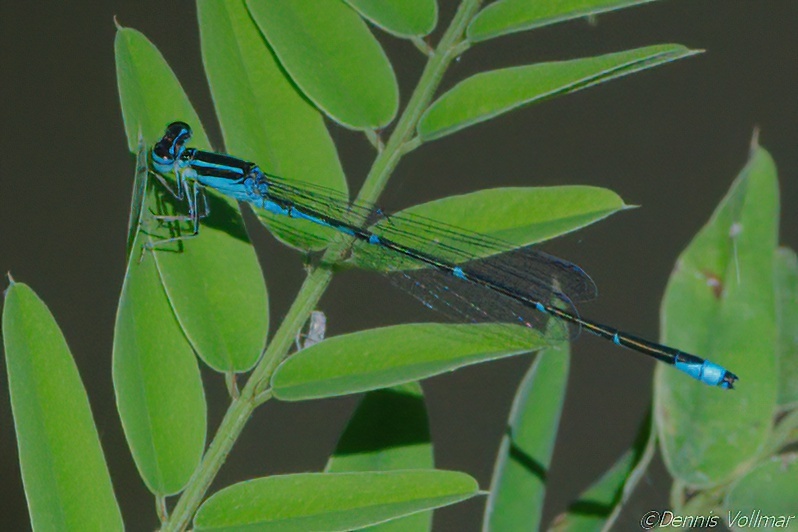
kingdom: Animalia
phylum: Arthropoda
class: Insecta
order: Odonata
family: Coenagrionidae
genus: Enallagma
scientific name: Enallagma exsulans
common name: Stream bluet
